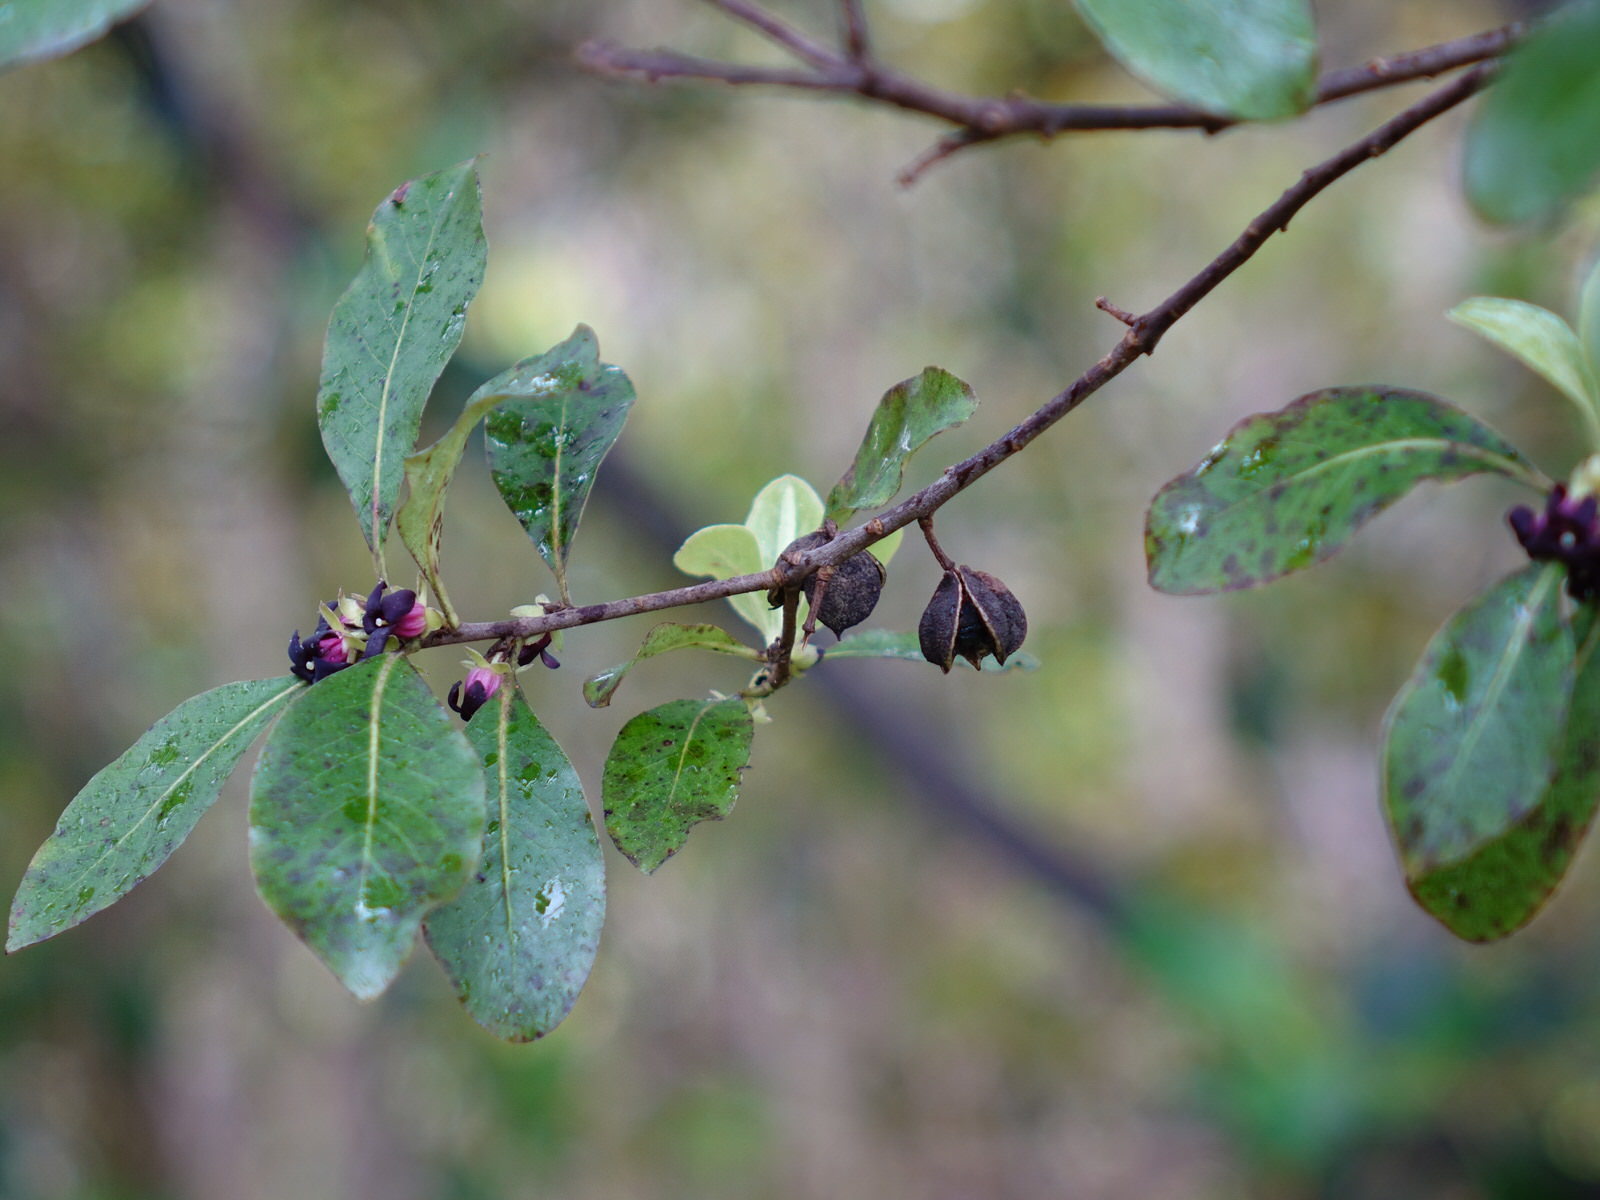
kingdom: Plantae
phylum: Tracheophyta
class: Magnoliopsida
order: Apiales
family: Pittosporaceae
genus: Pittosporum
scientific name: Pittosporum tenuifolium
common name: Kohuhu
